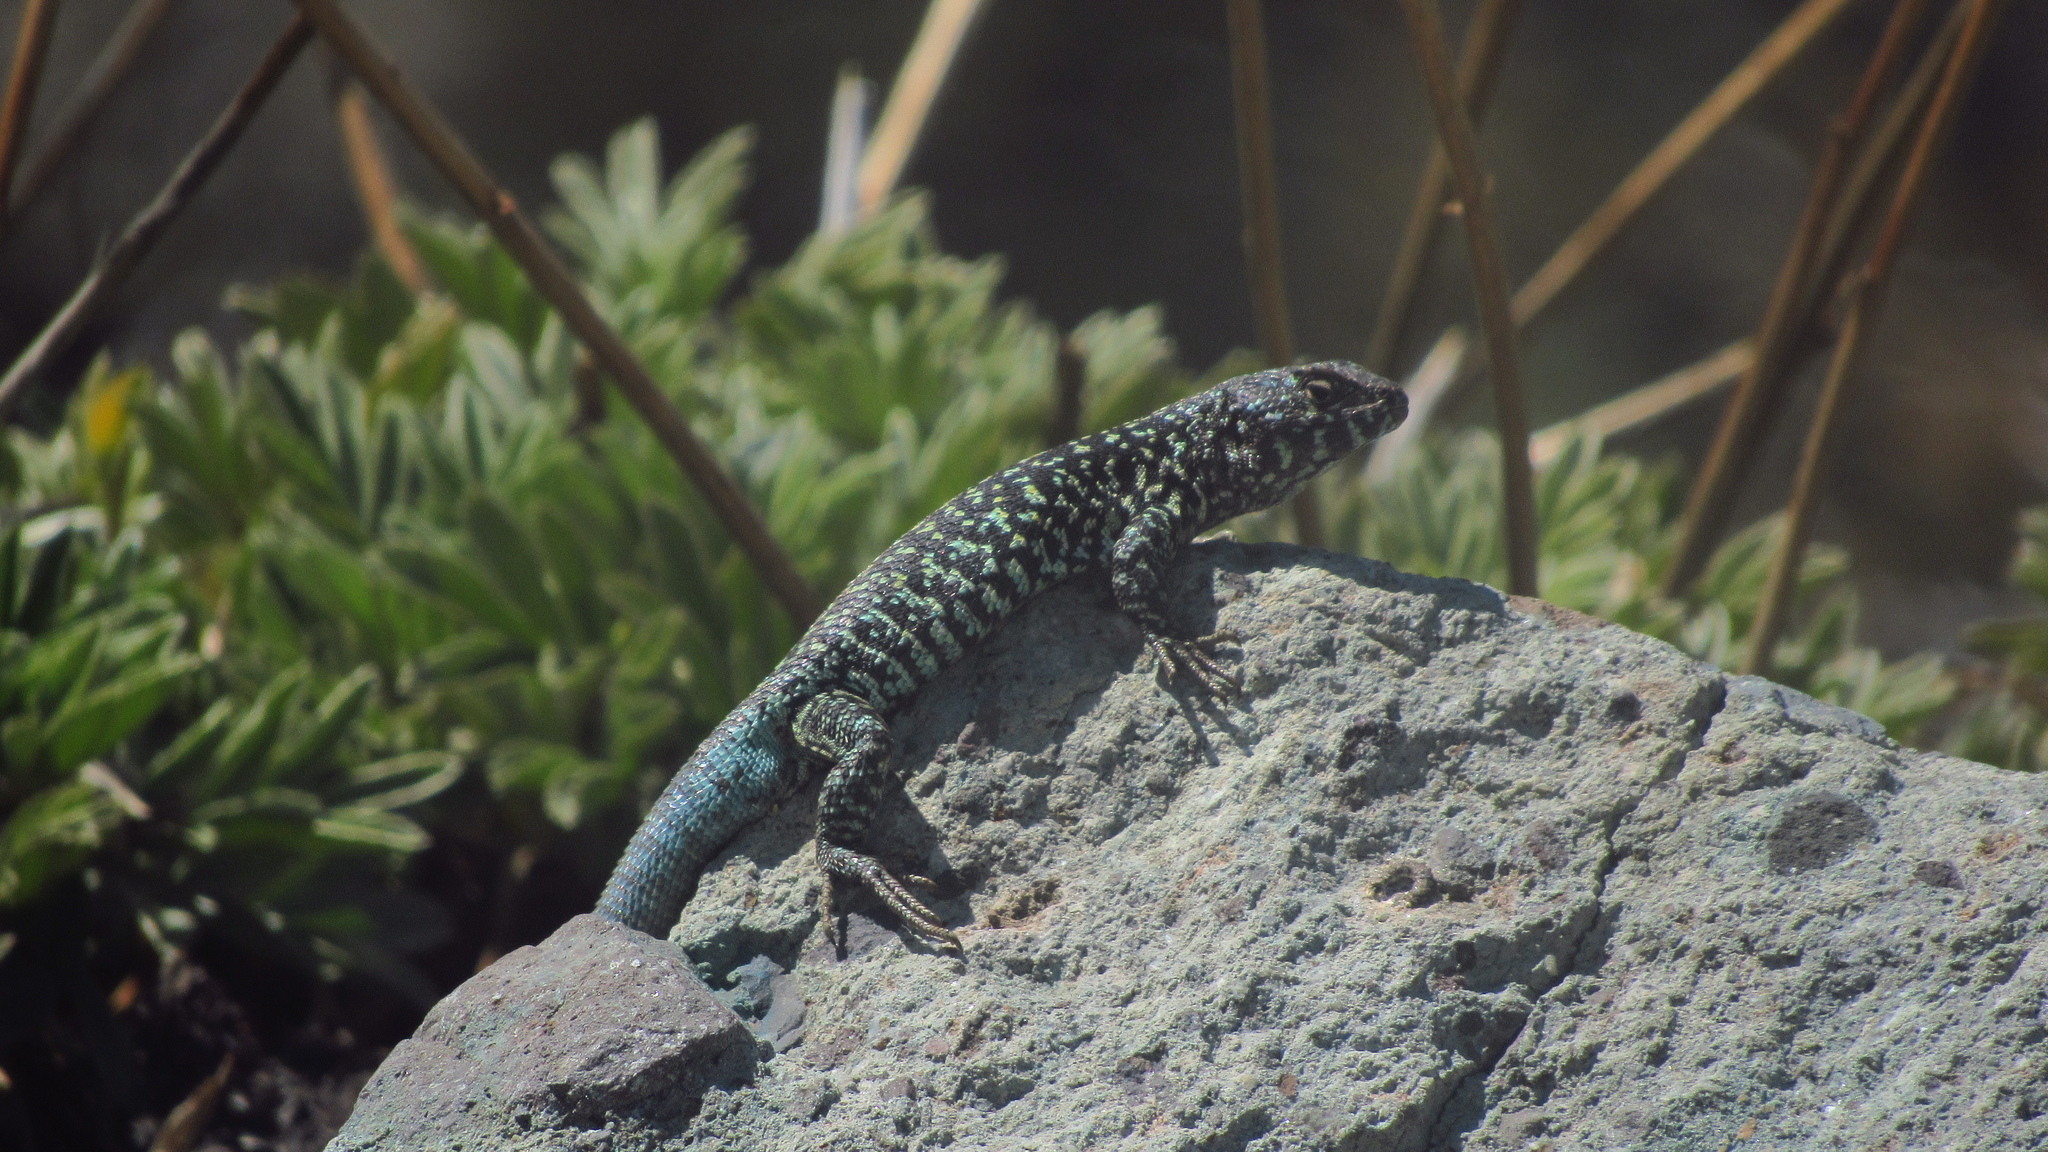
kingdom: Animalia
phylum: Chordata
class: Squamata
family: Liolaemidae
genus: Liolaemus
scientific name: Liolaemus nigroviridis
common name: Black-green tree iguana
